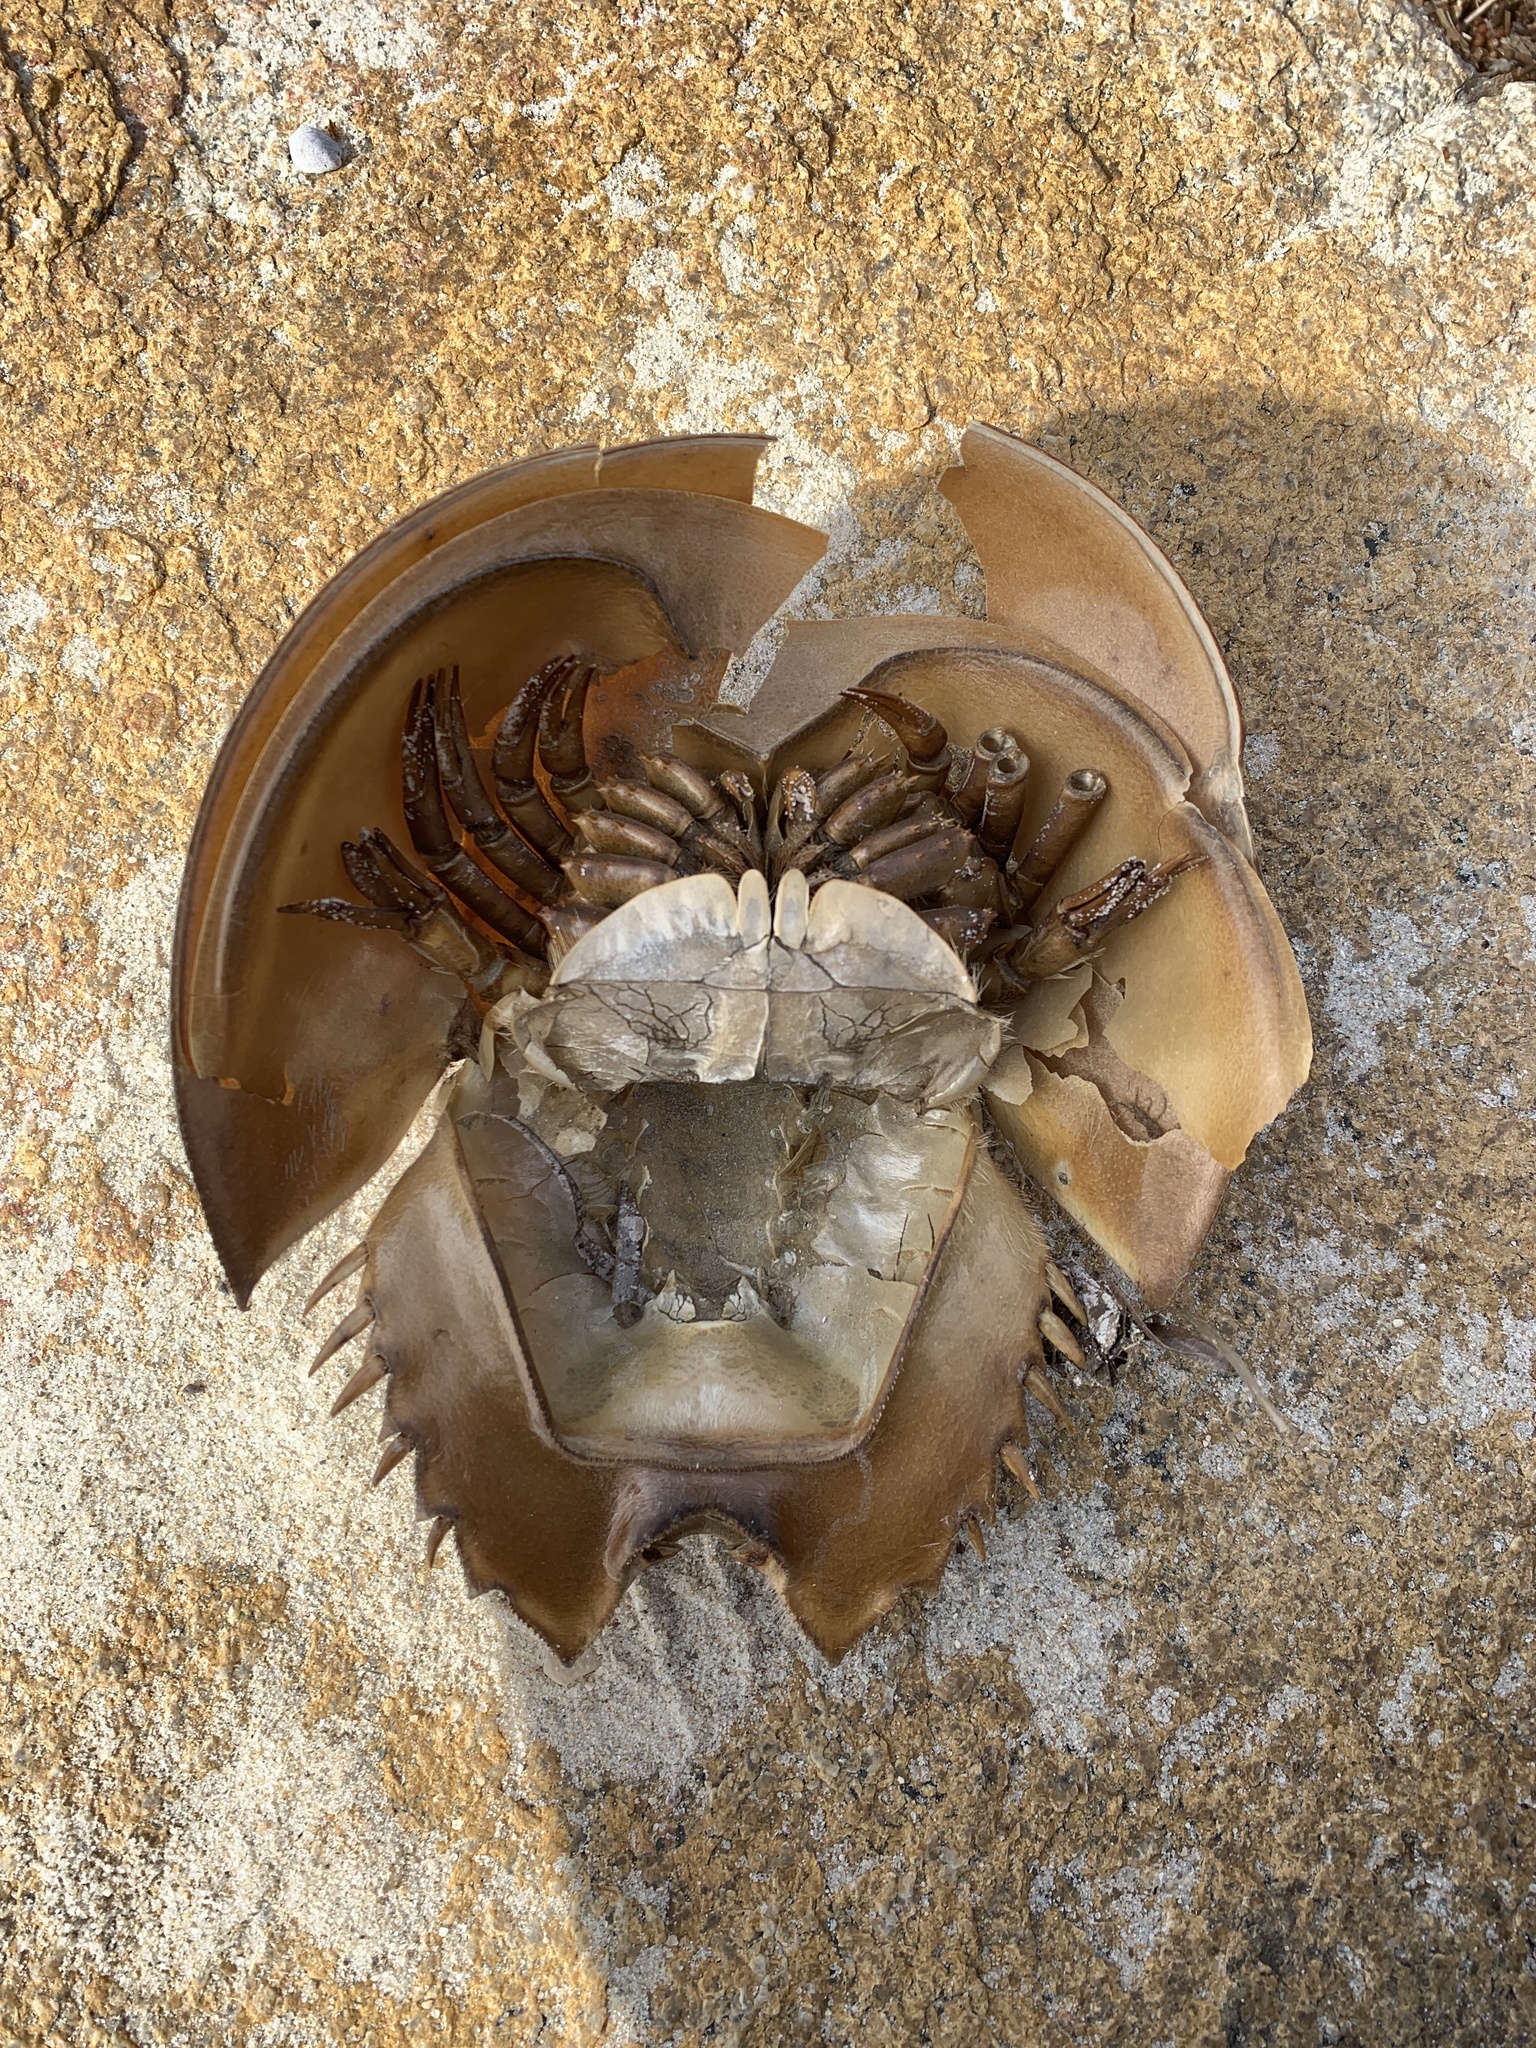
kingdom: Animalia
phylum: Arthropoda
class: Merostomata
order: Xiphosurida
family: Limulidae
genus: Limulus
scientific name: Limulus polyphemus
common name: Horseshoe crab
